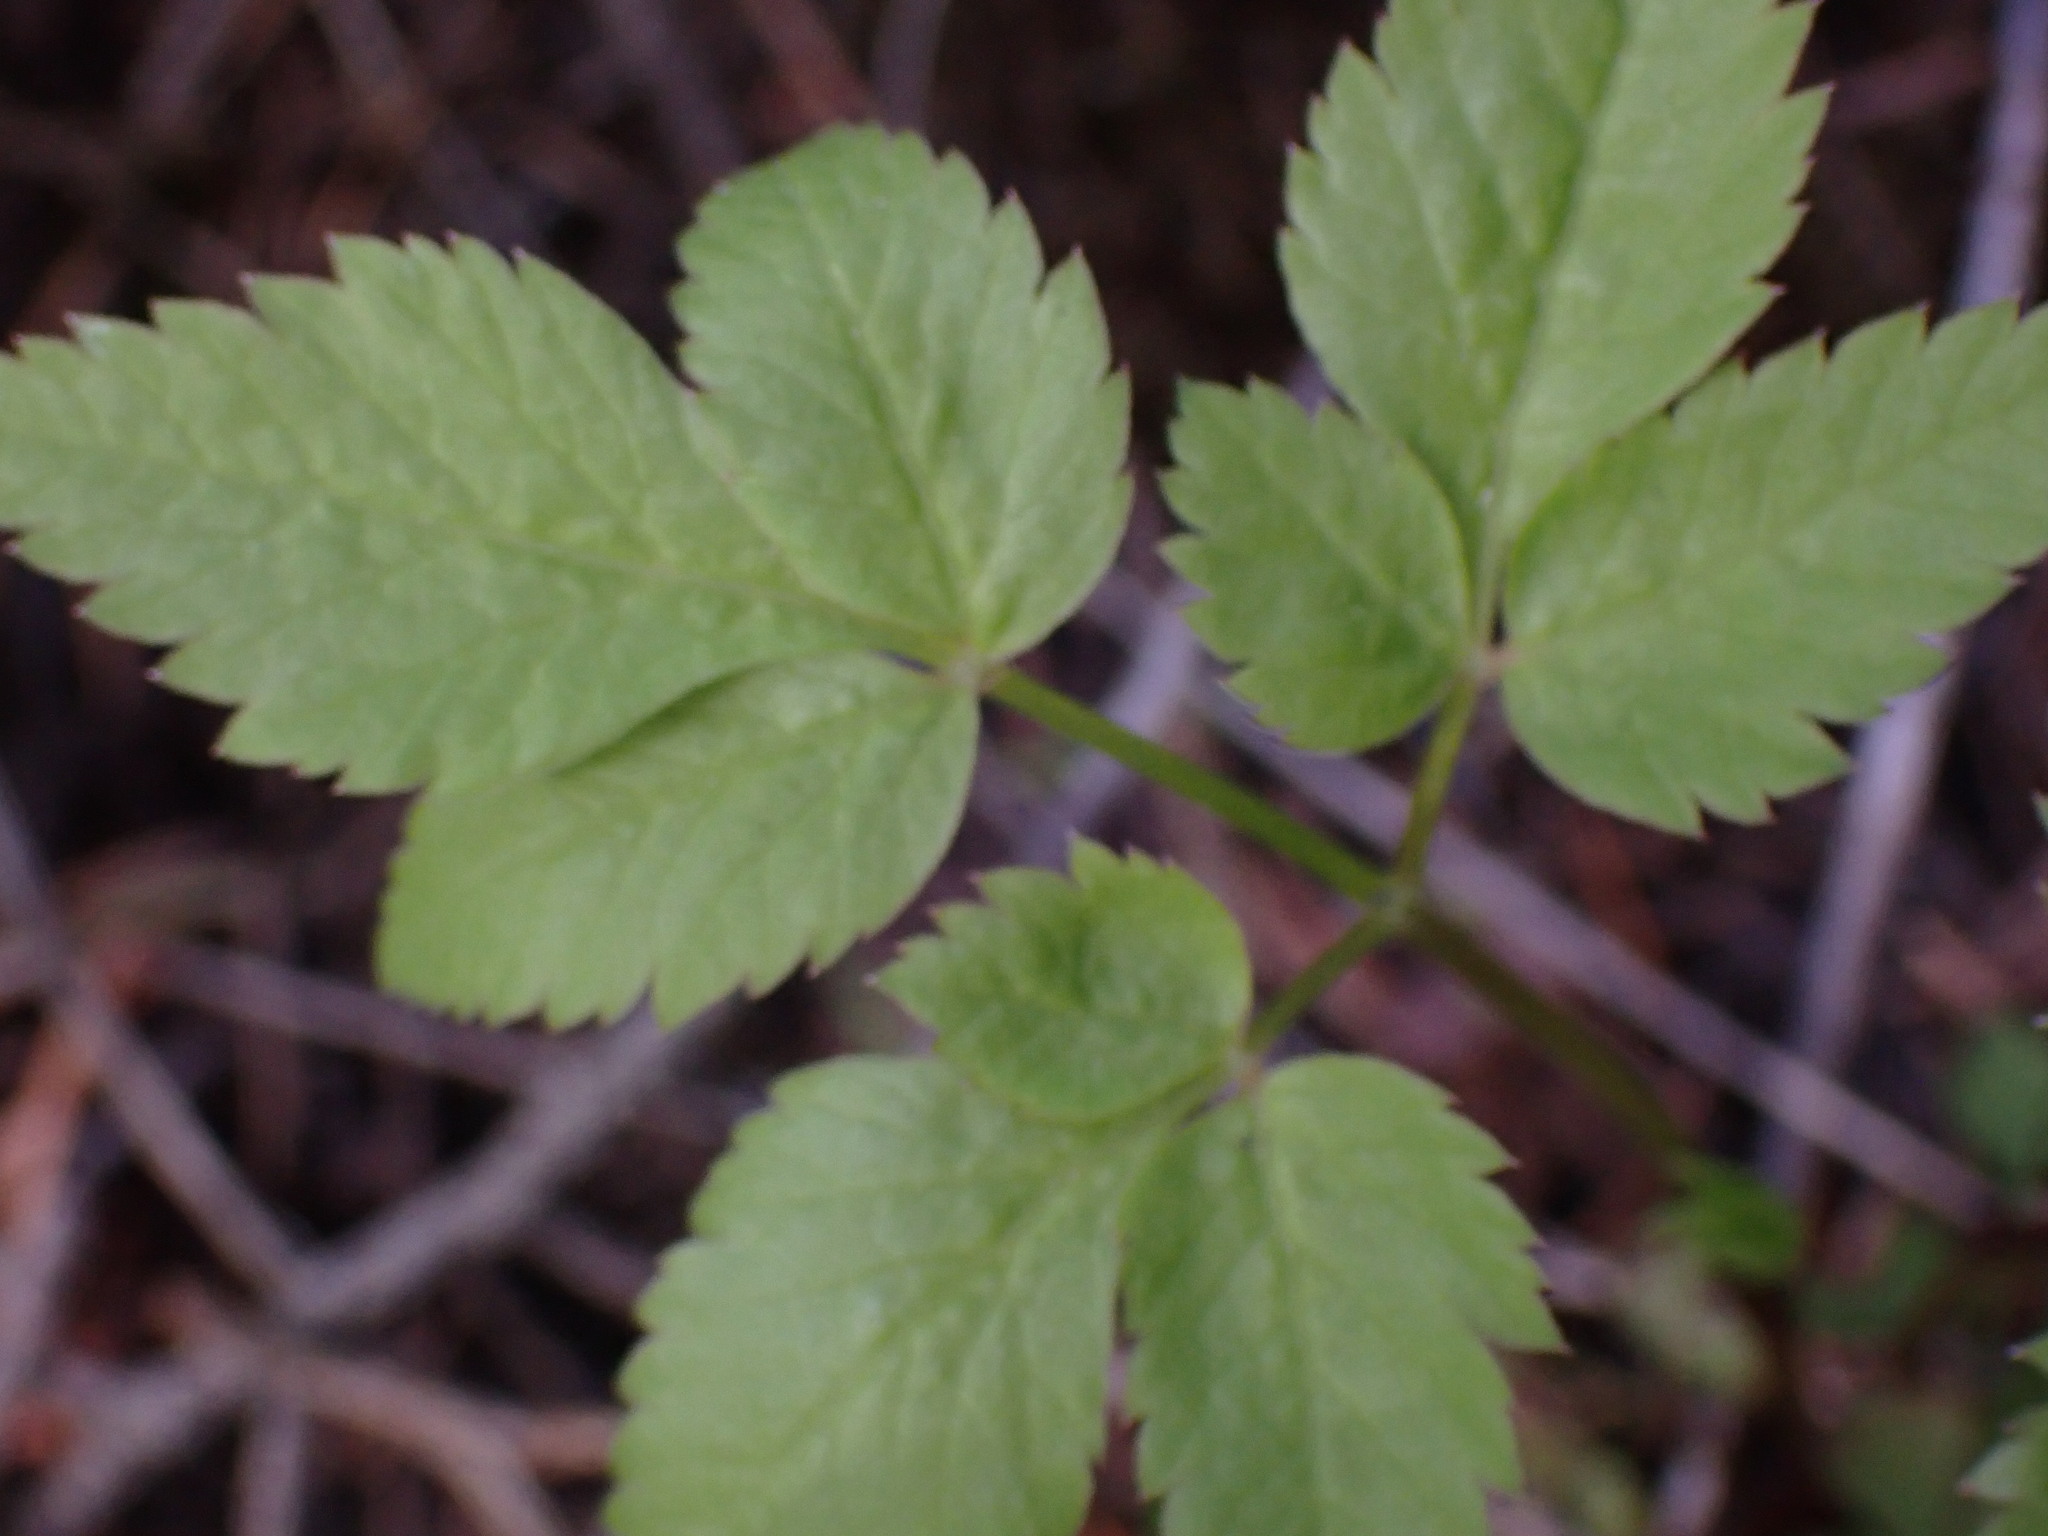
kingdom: Plantae
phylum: Tracheophyta
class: Magnoliopsida
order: Apiales
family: Apiaceae
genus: Osmorhiza
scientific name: Osmorhiza berteroi
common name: Mountain sweet cicely
